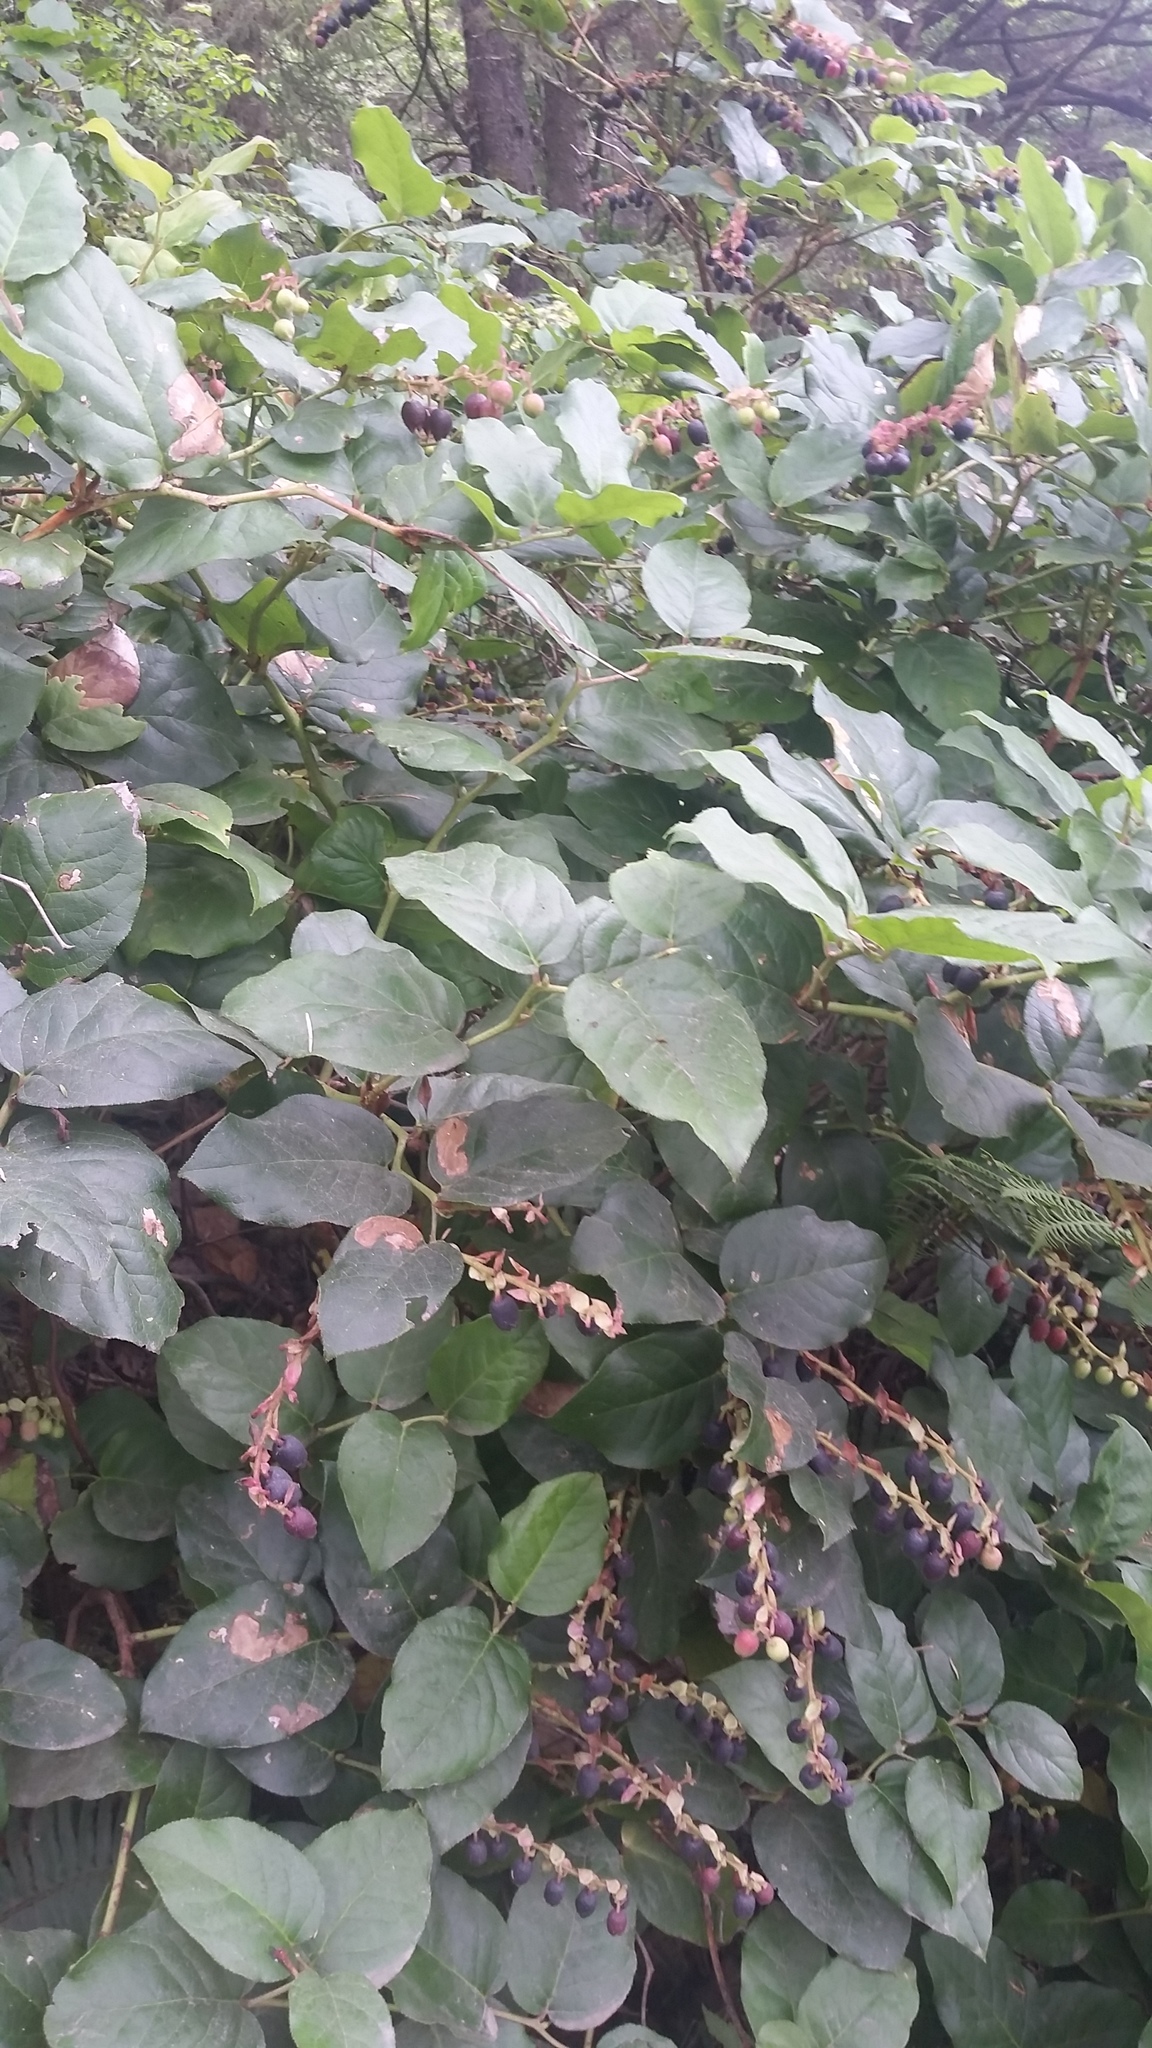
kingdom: Plantae
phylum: Tracheophyta
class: Magnoliopsida
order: Ericales
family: Ericaceae
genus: Gaultheria
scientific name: Gaultheria shallon
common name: Shallon
